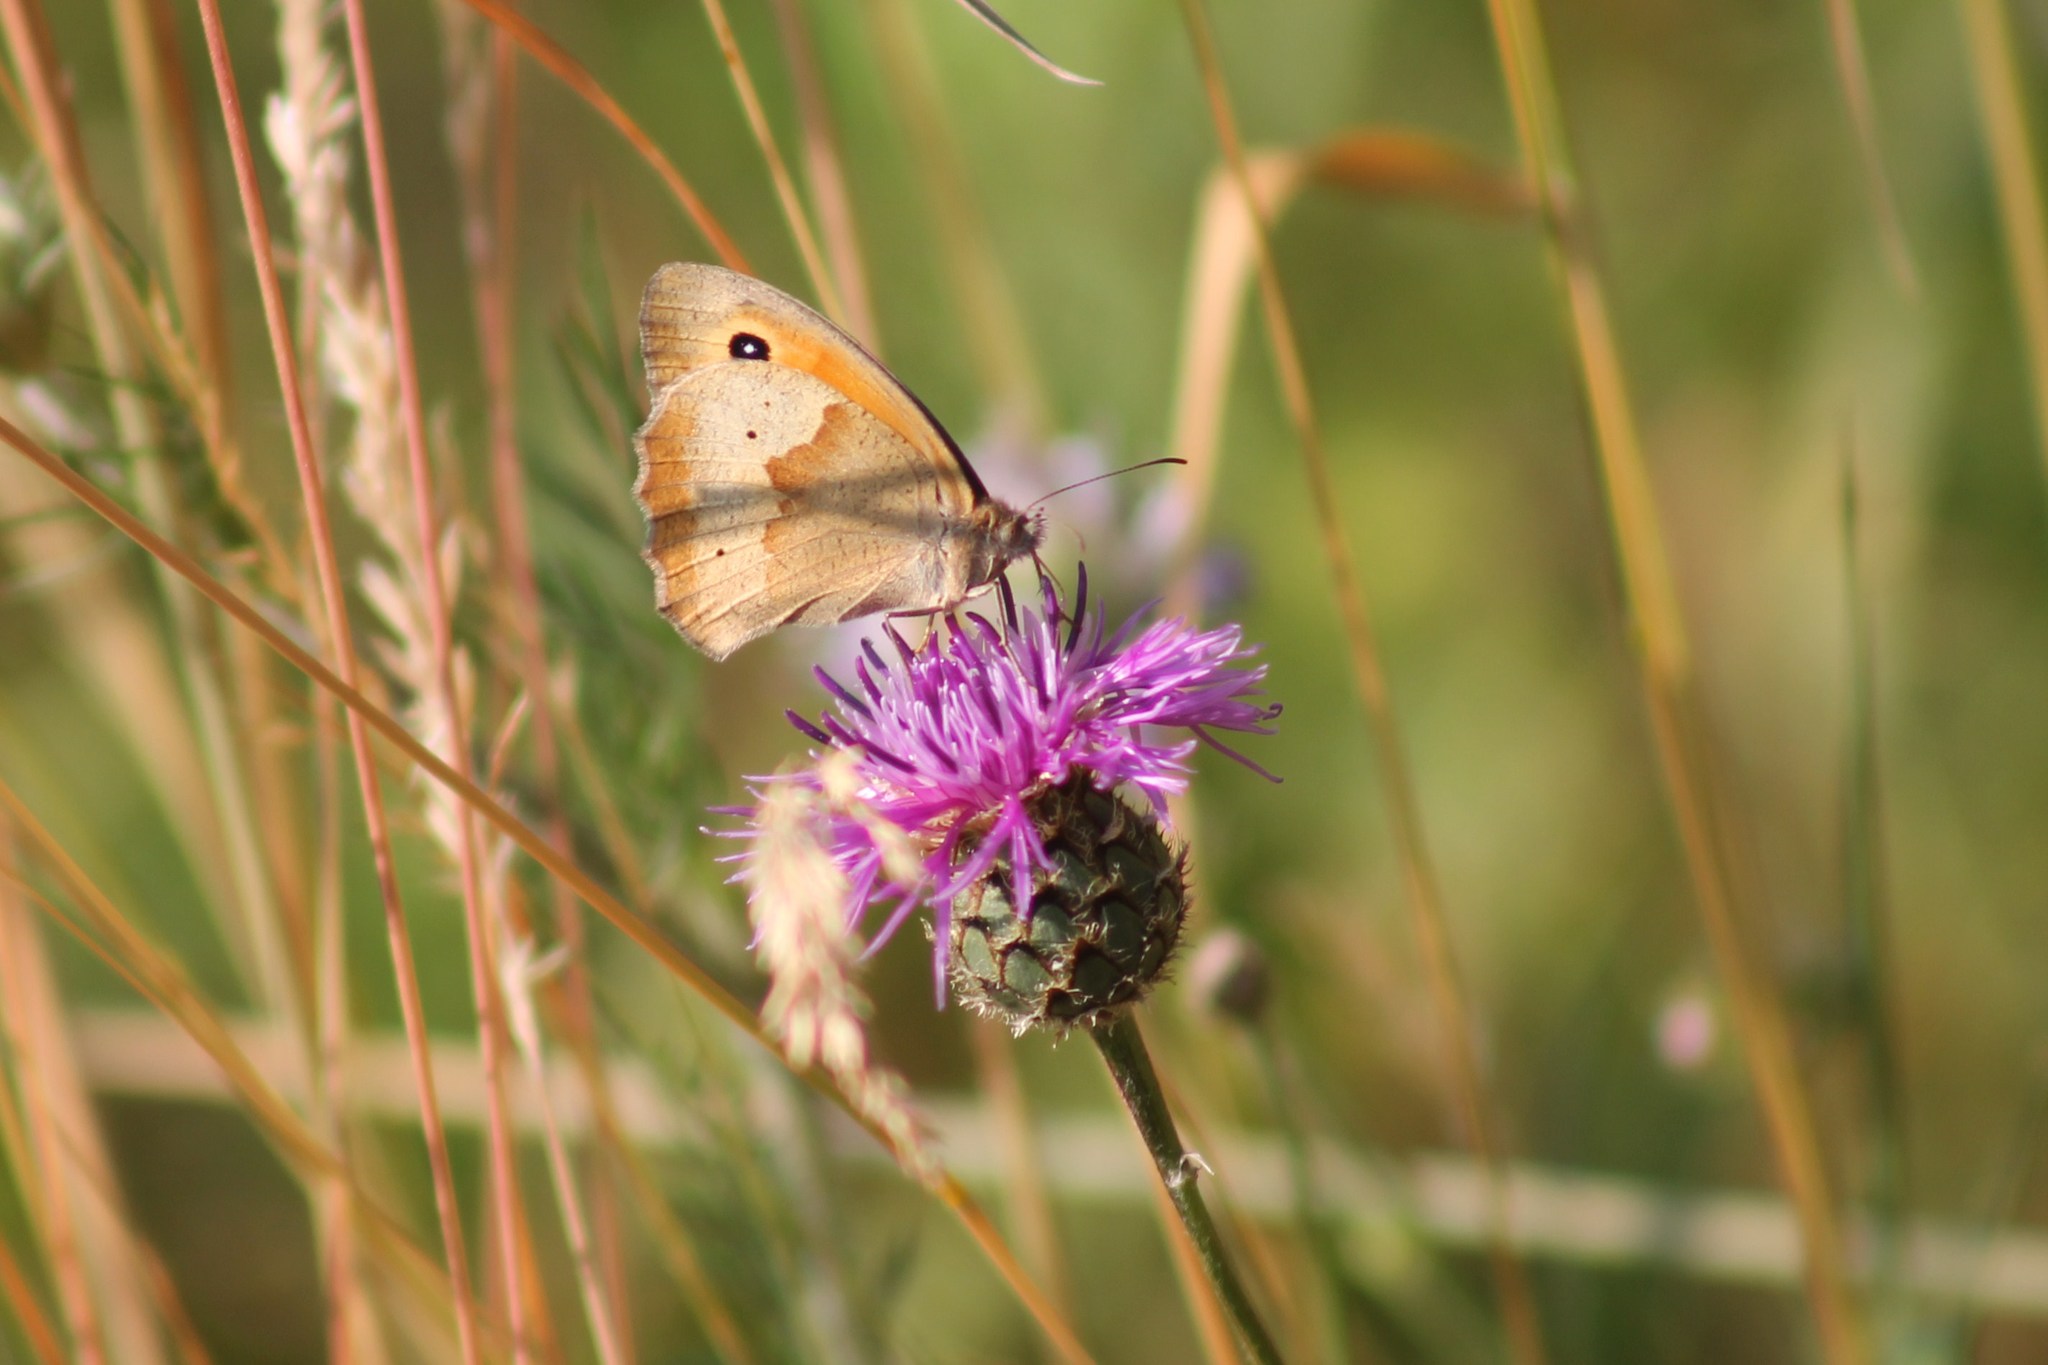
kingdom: Animalia
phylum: Arthropoda
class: Insecta
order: Lepidoptera
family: Nymphalidae
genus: Maniola
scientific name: Maniola jurtina
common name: Meadow brown
